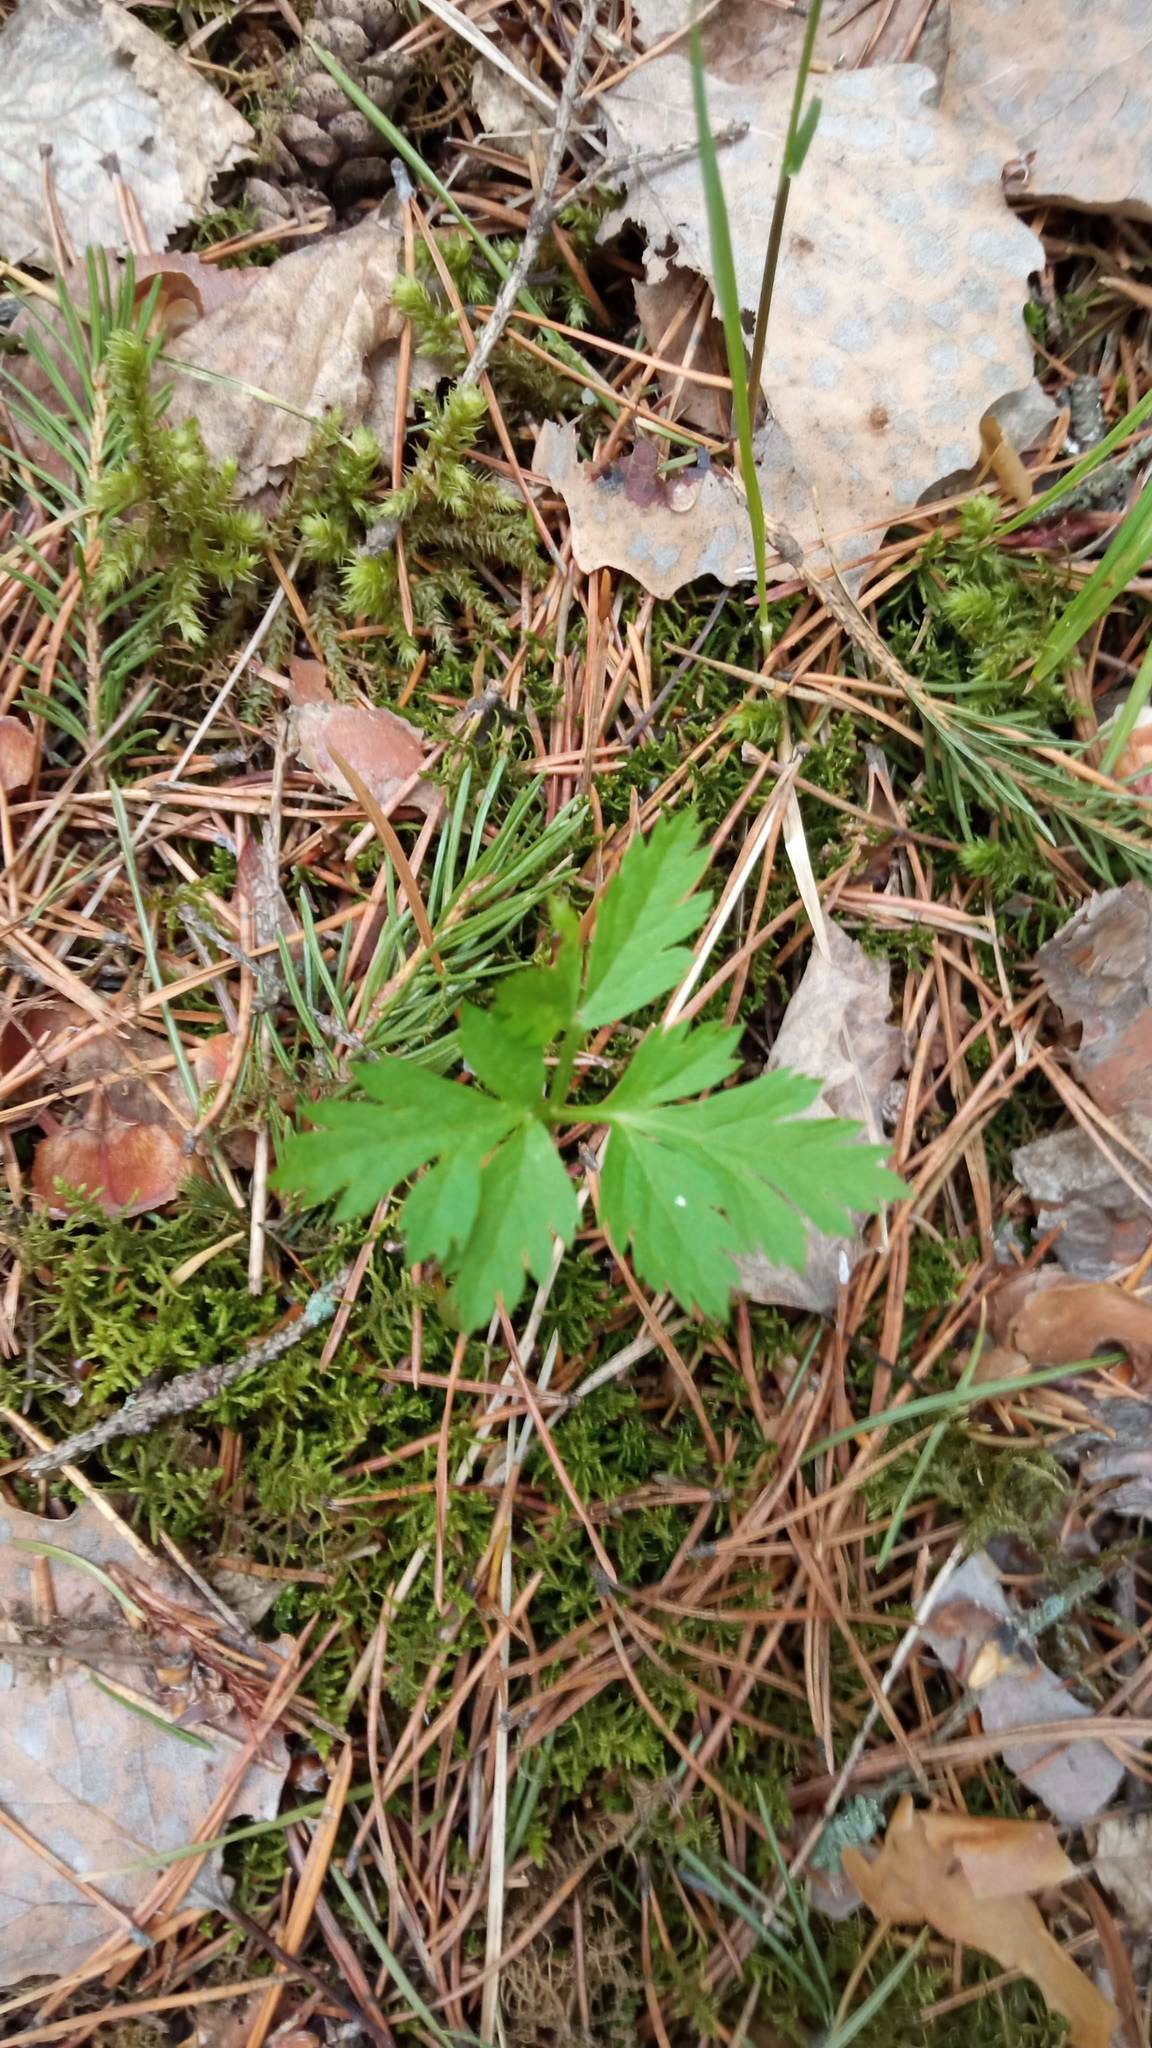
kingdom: Plantae
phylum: Tracheophyta
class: Magnoliopsida
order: Apiales
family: Apiaceae
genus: Pleurospermum
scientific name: Pleurospermum uralense
